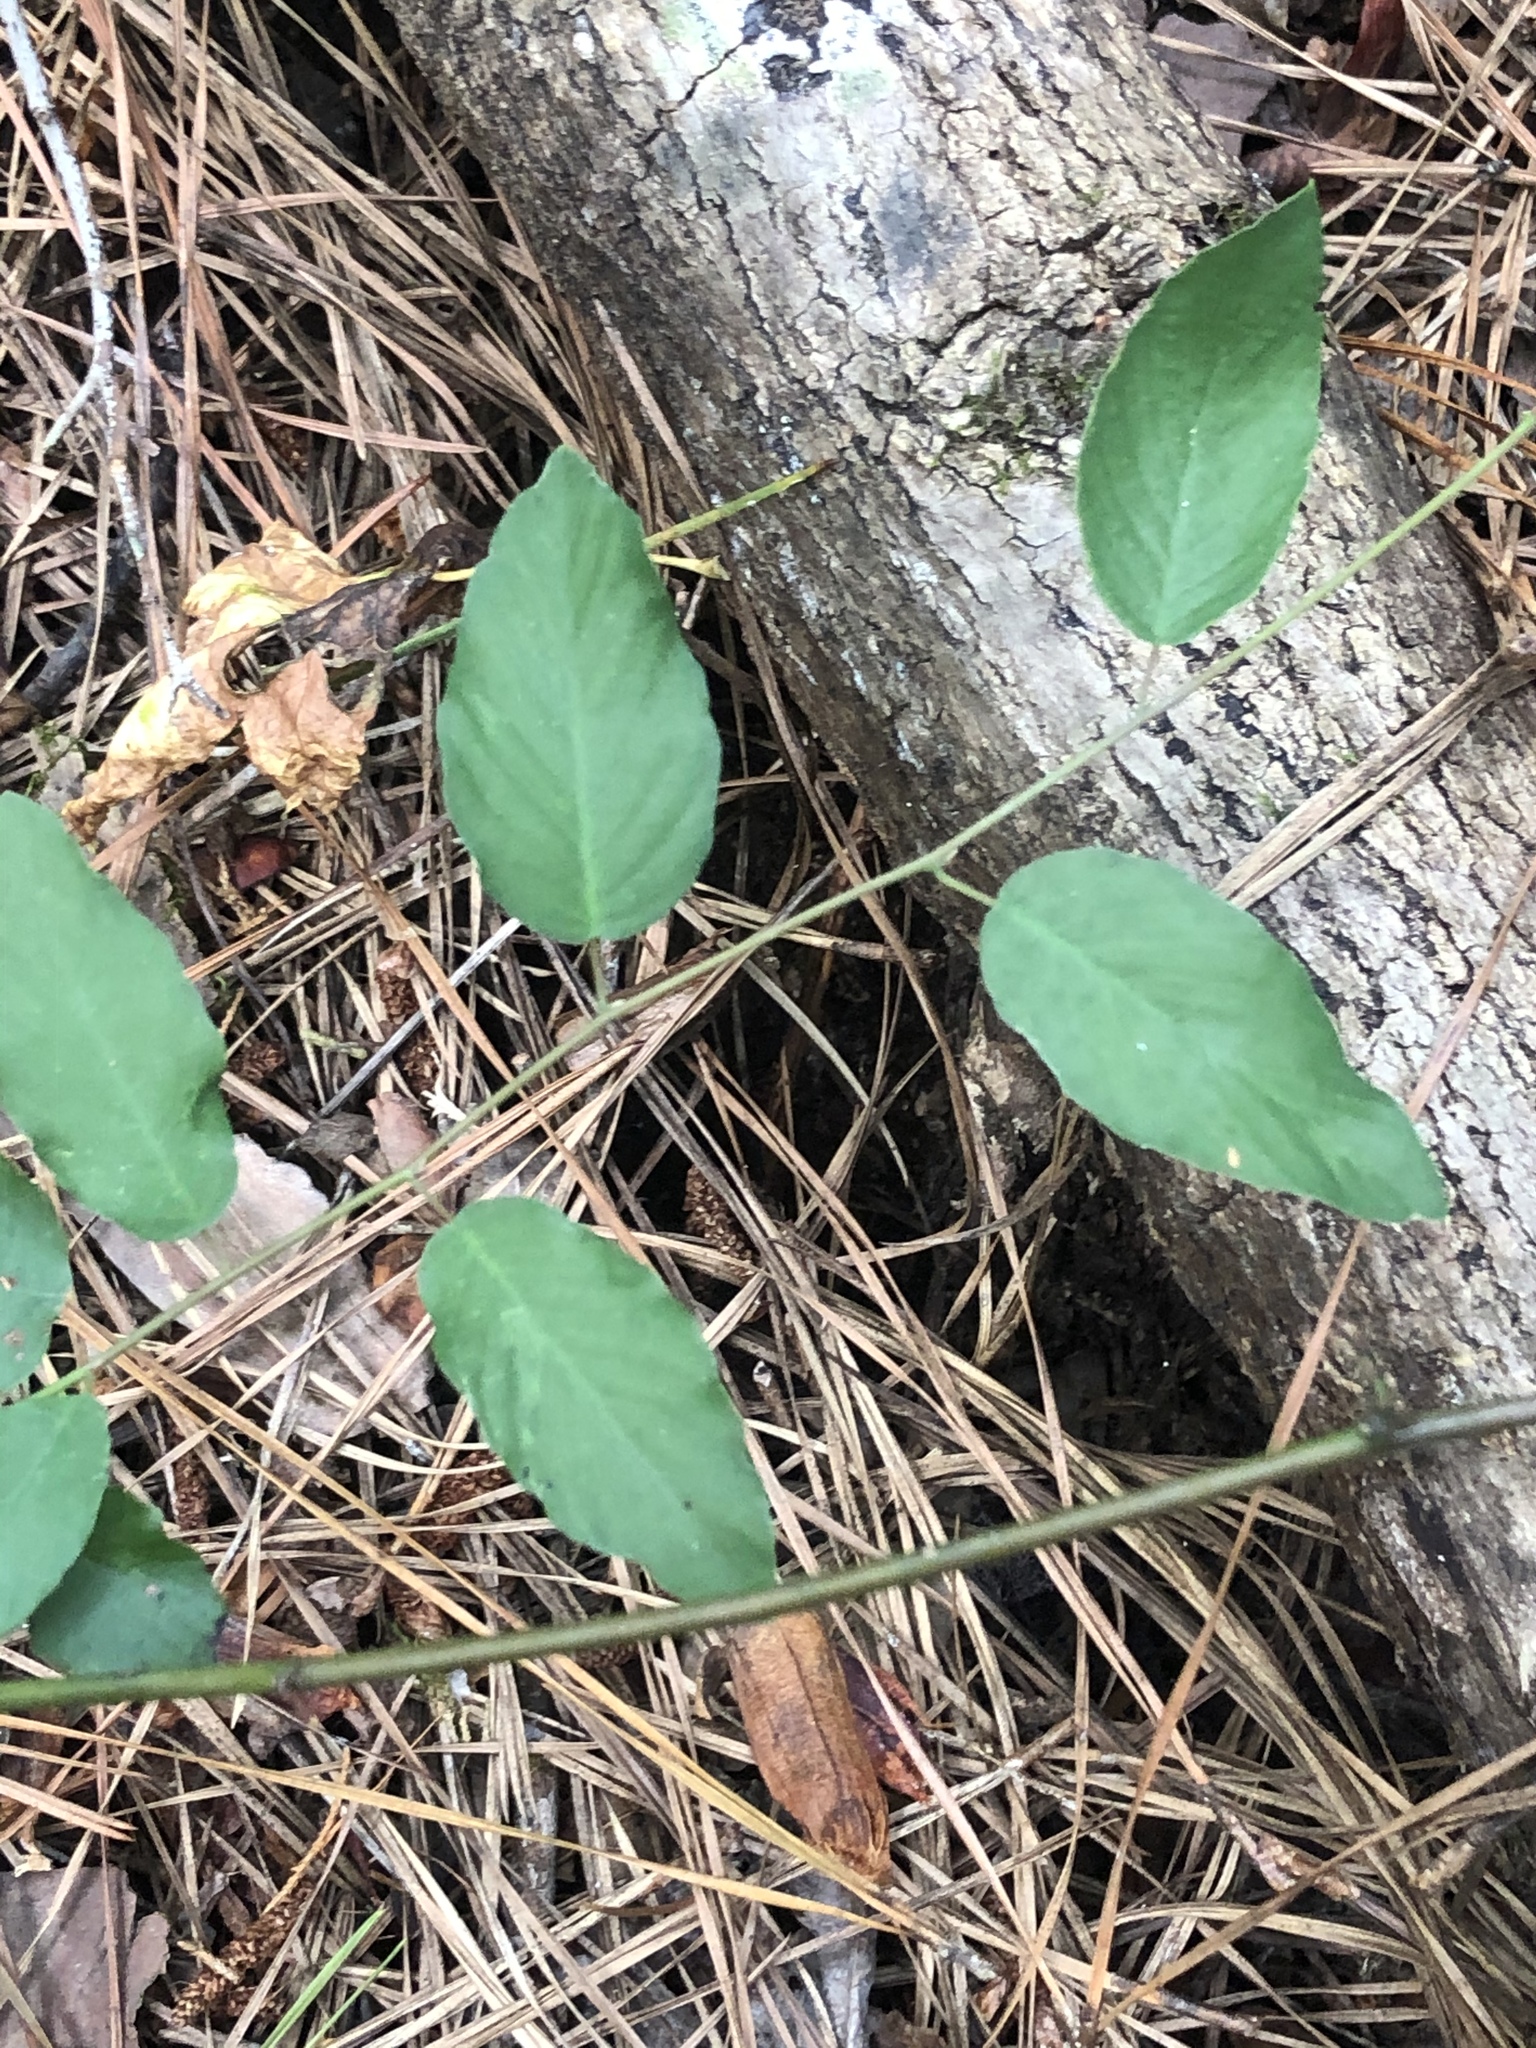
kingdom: Plantae
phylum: Tracheophyta
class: Magnoliopsida
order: Rosales
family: Rhamnaceae
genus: Berchemia
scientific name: Berchemia scandens
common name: Supplejack
